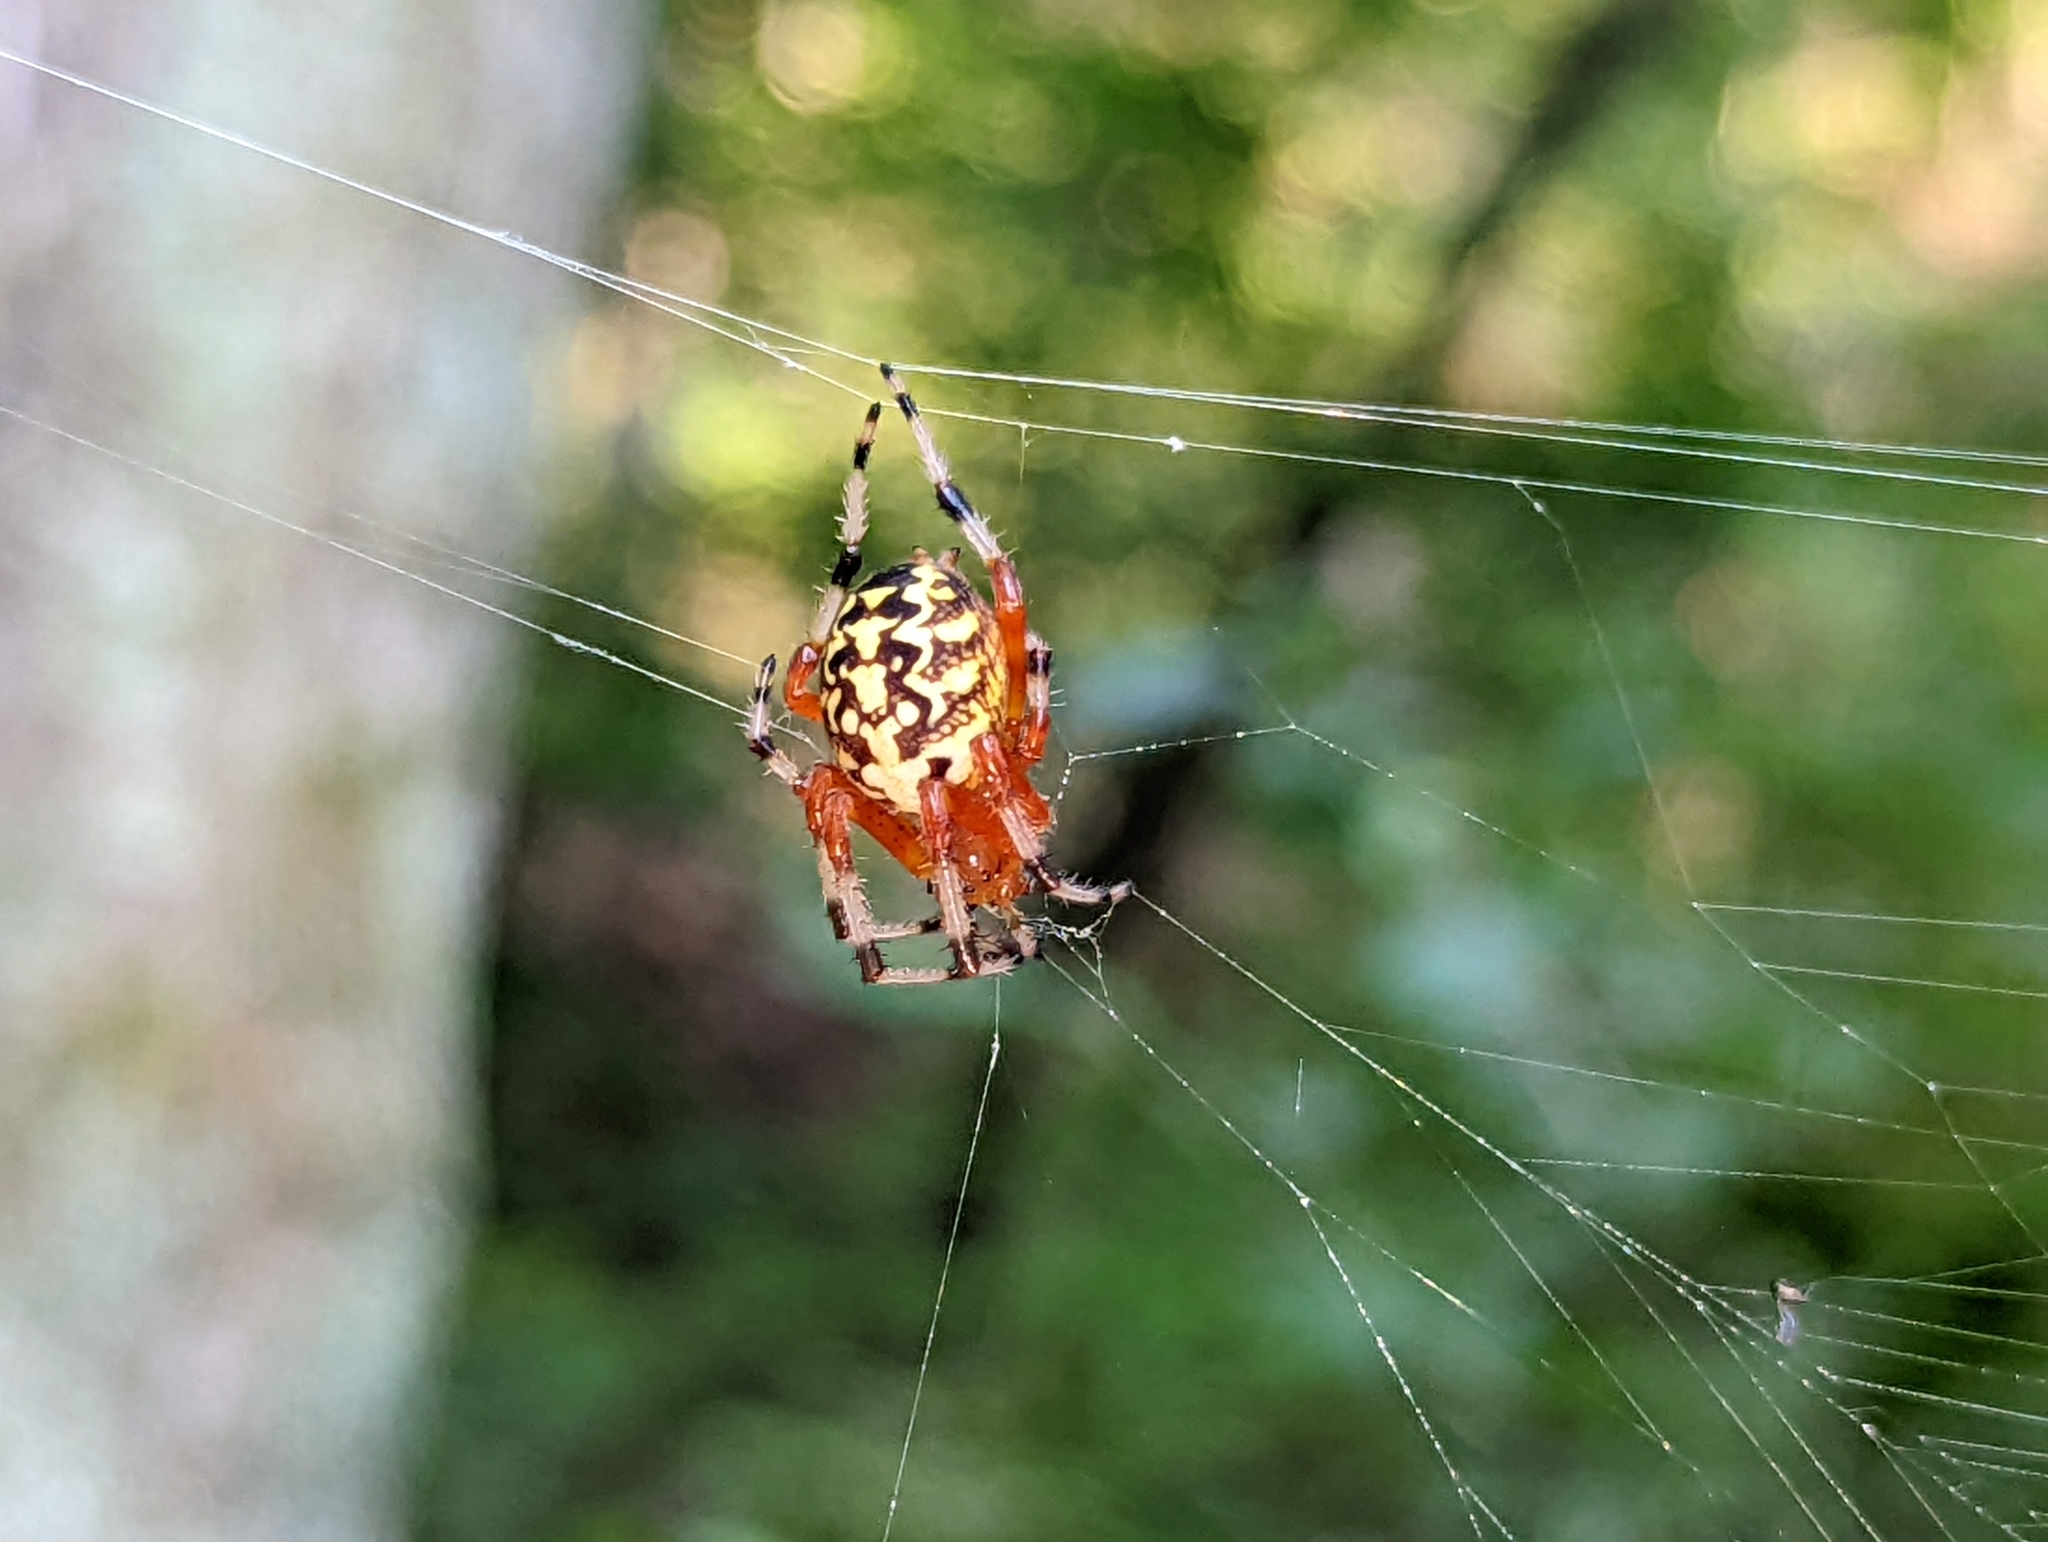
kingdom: Animalia
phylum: Arthropoda
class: Arachnida
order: Araneae
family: Araneidae
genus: Araneus
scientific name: Araneus marmoreus
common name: Marbled orbweaver
